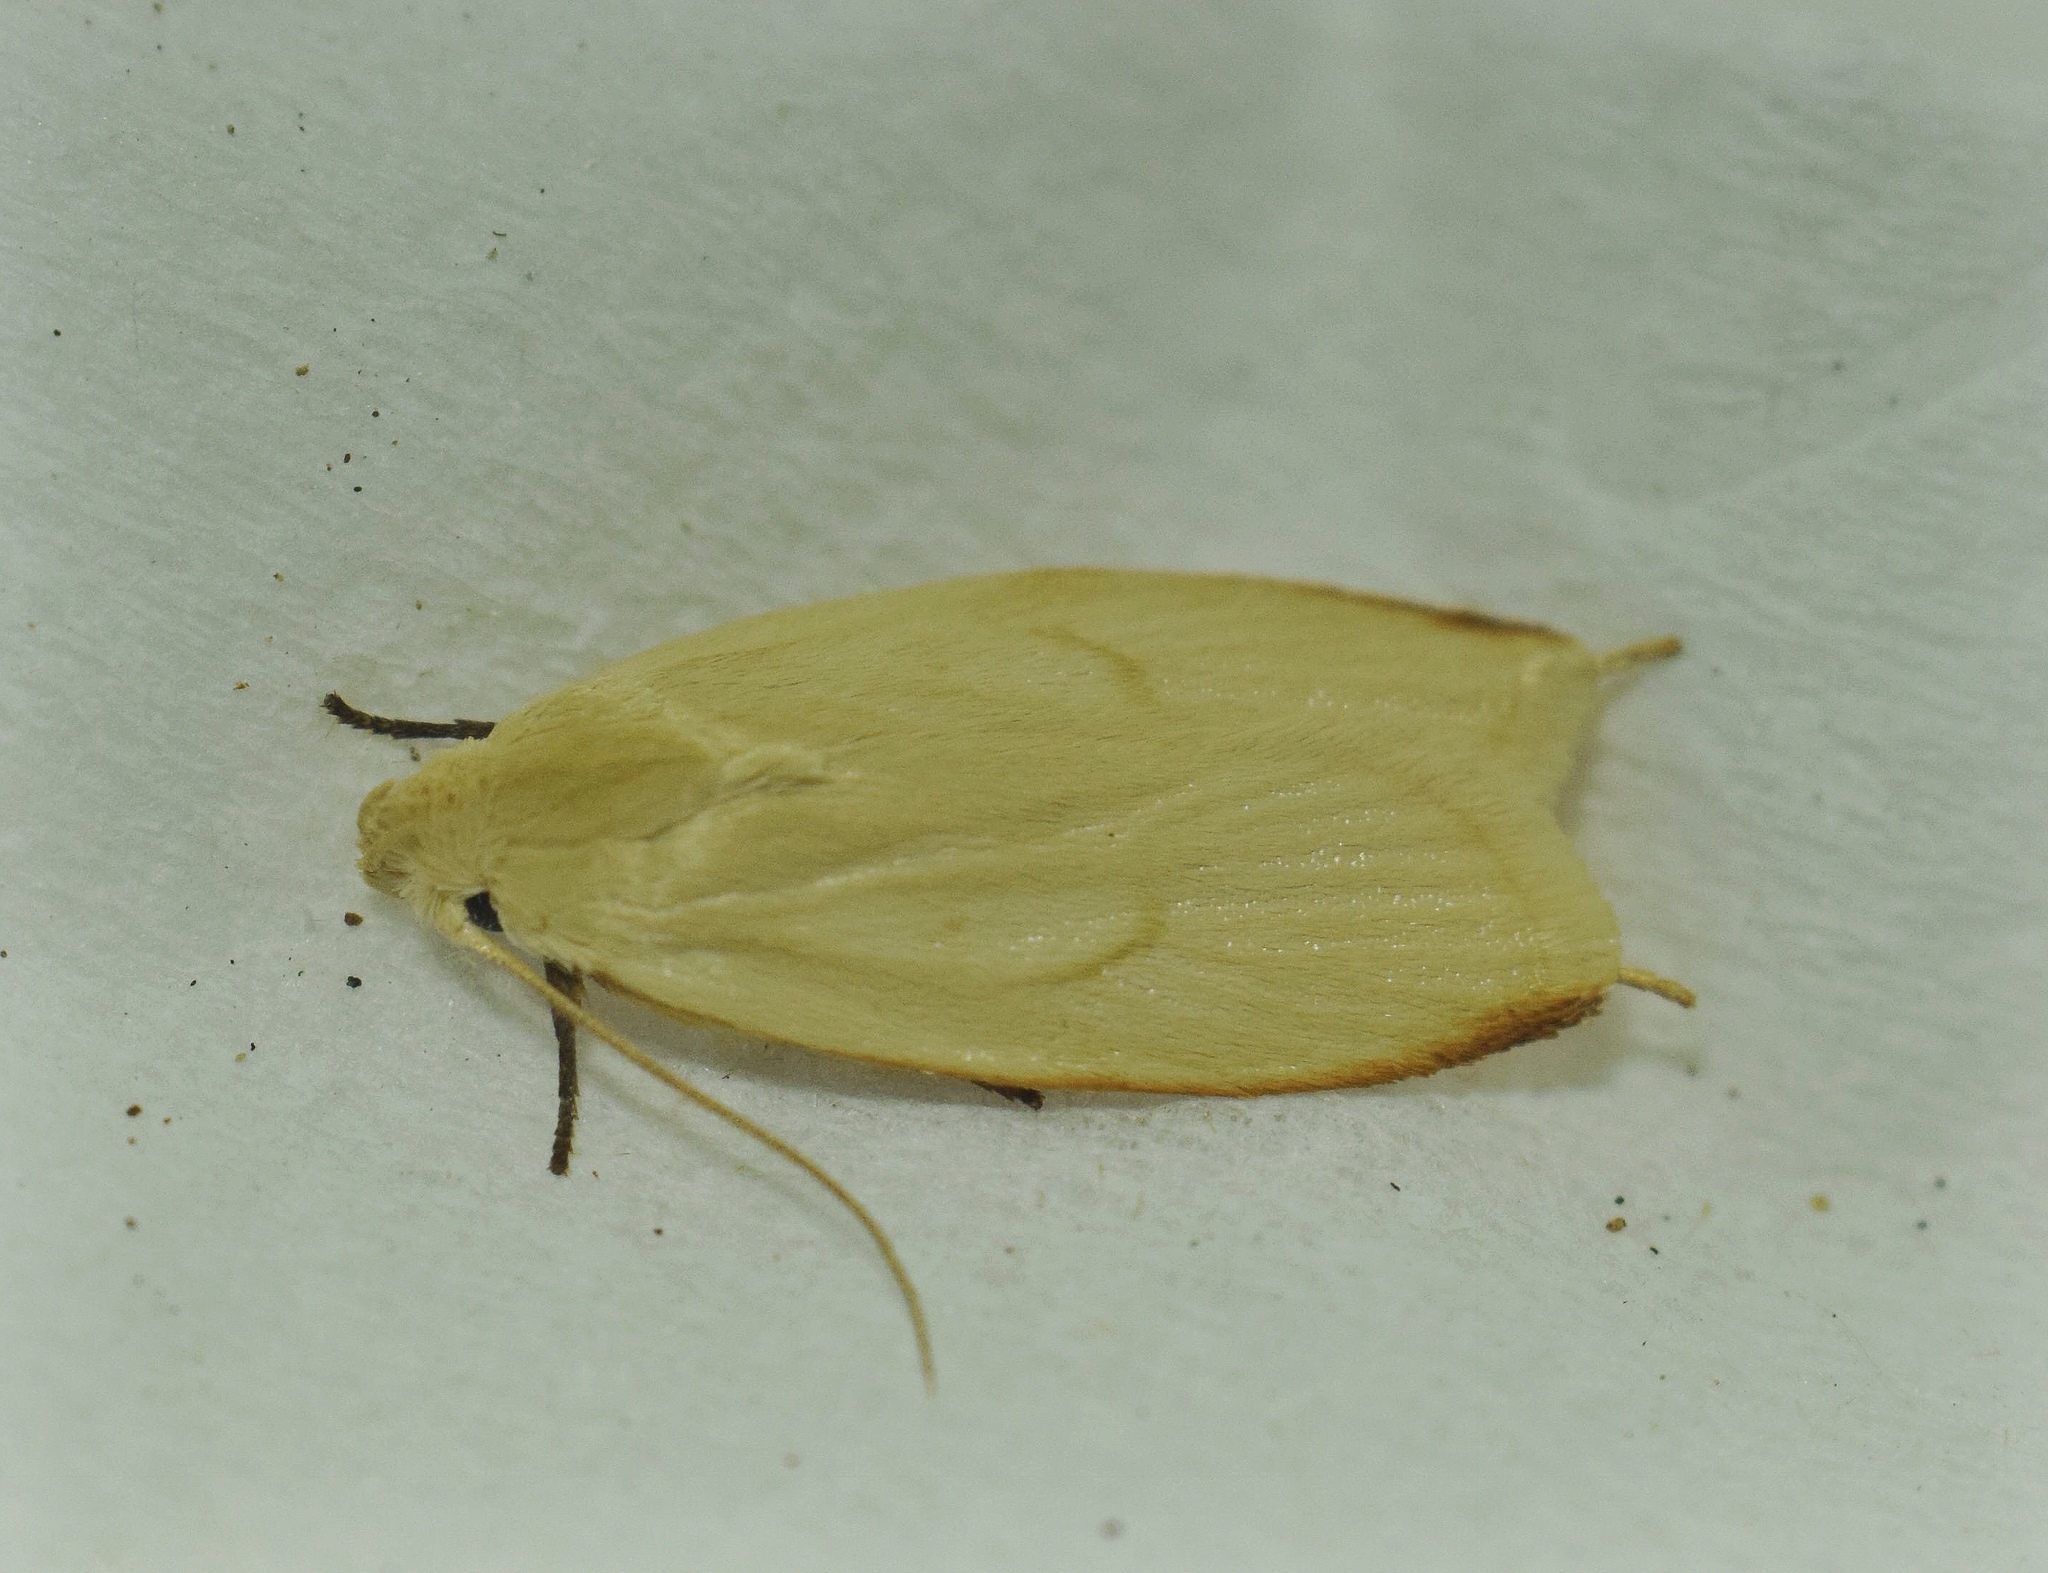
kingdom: Animalia
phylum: Arthropoda
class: Insecta
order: Lepidoptera
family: Peleopodidae
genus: Odites
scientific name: Odites sucinea
